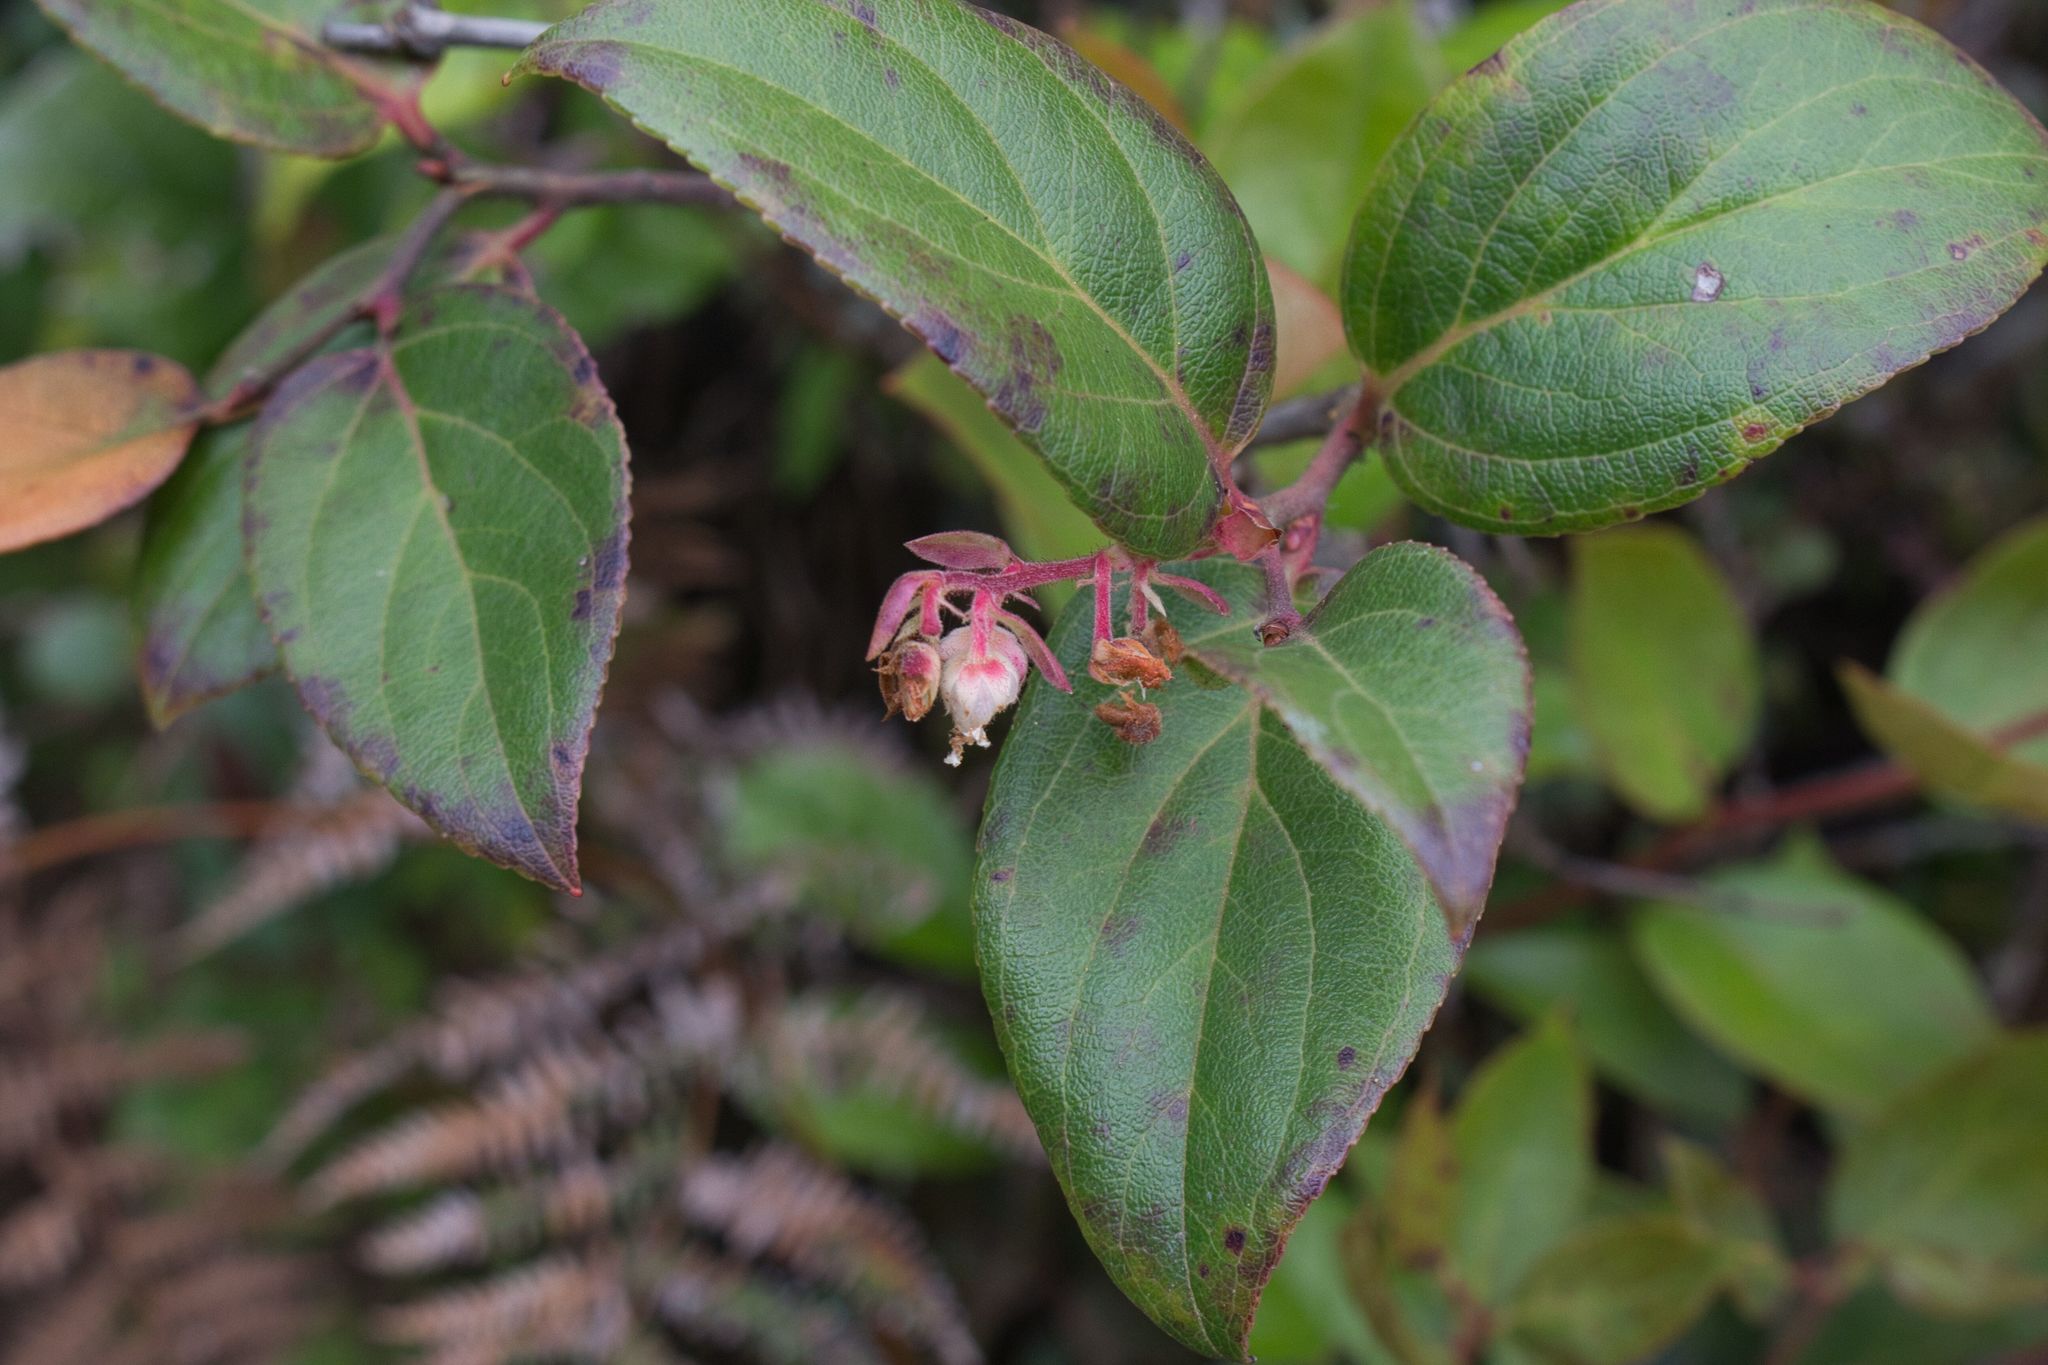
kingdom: Plantae
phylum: Tracheophyta
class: Magnoliopsida
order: Ericales
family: Ericaceae
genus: Gaultheria
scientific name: Gaultheria erecta
